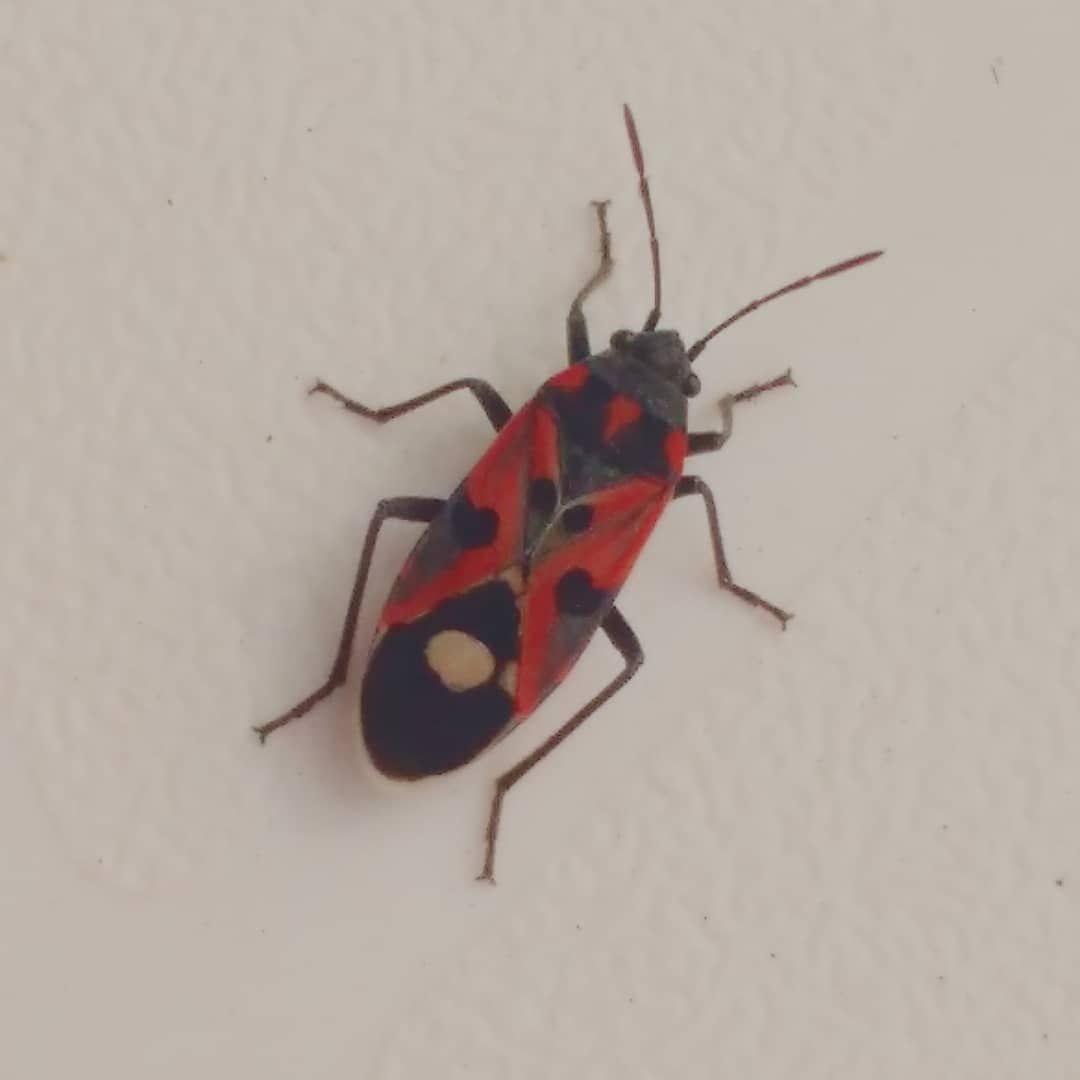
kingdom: Animalia
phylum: Arthropoda
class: Insecta
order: Hemiptera
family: Lygaeidae
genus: Lygaeus
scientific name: Lygaeus alboornatus
